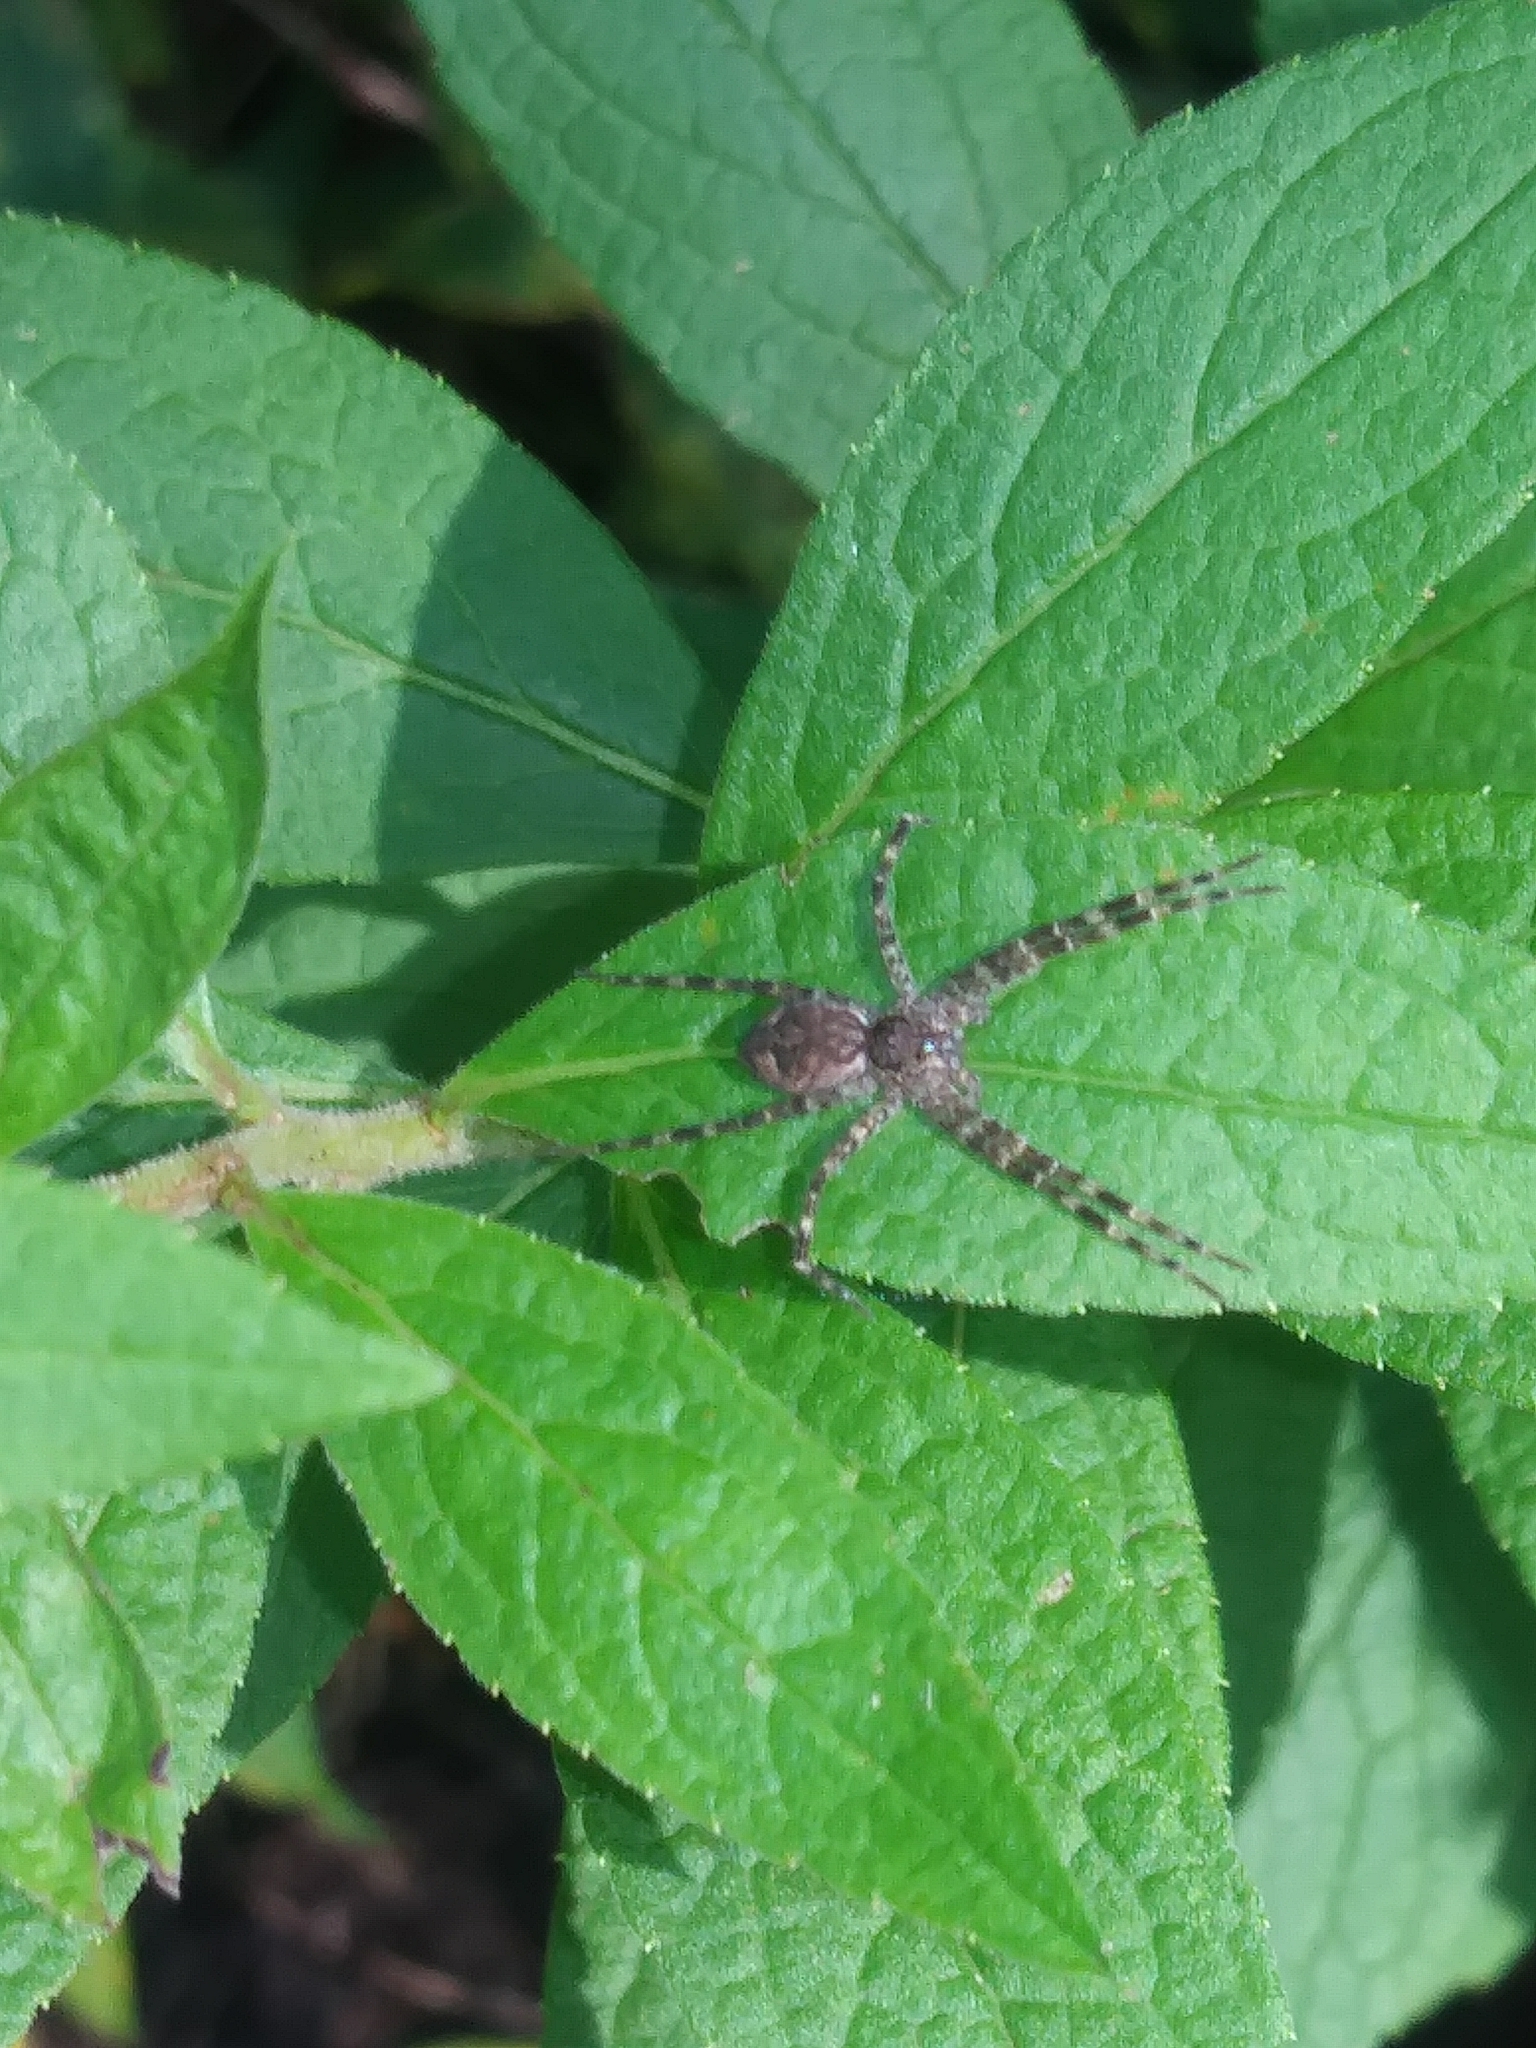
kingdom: Animalia
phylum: Arthropoda
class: Arachnida
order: Araneae
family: Pisauridae
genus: Dolomedes
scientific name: Dolomedes tenebrosus
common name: Dark fishing spider
